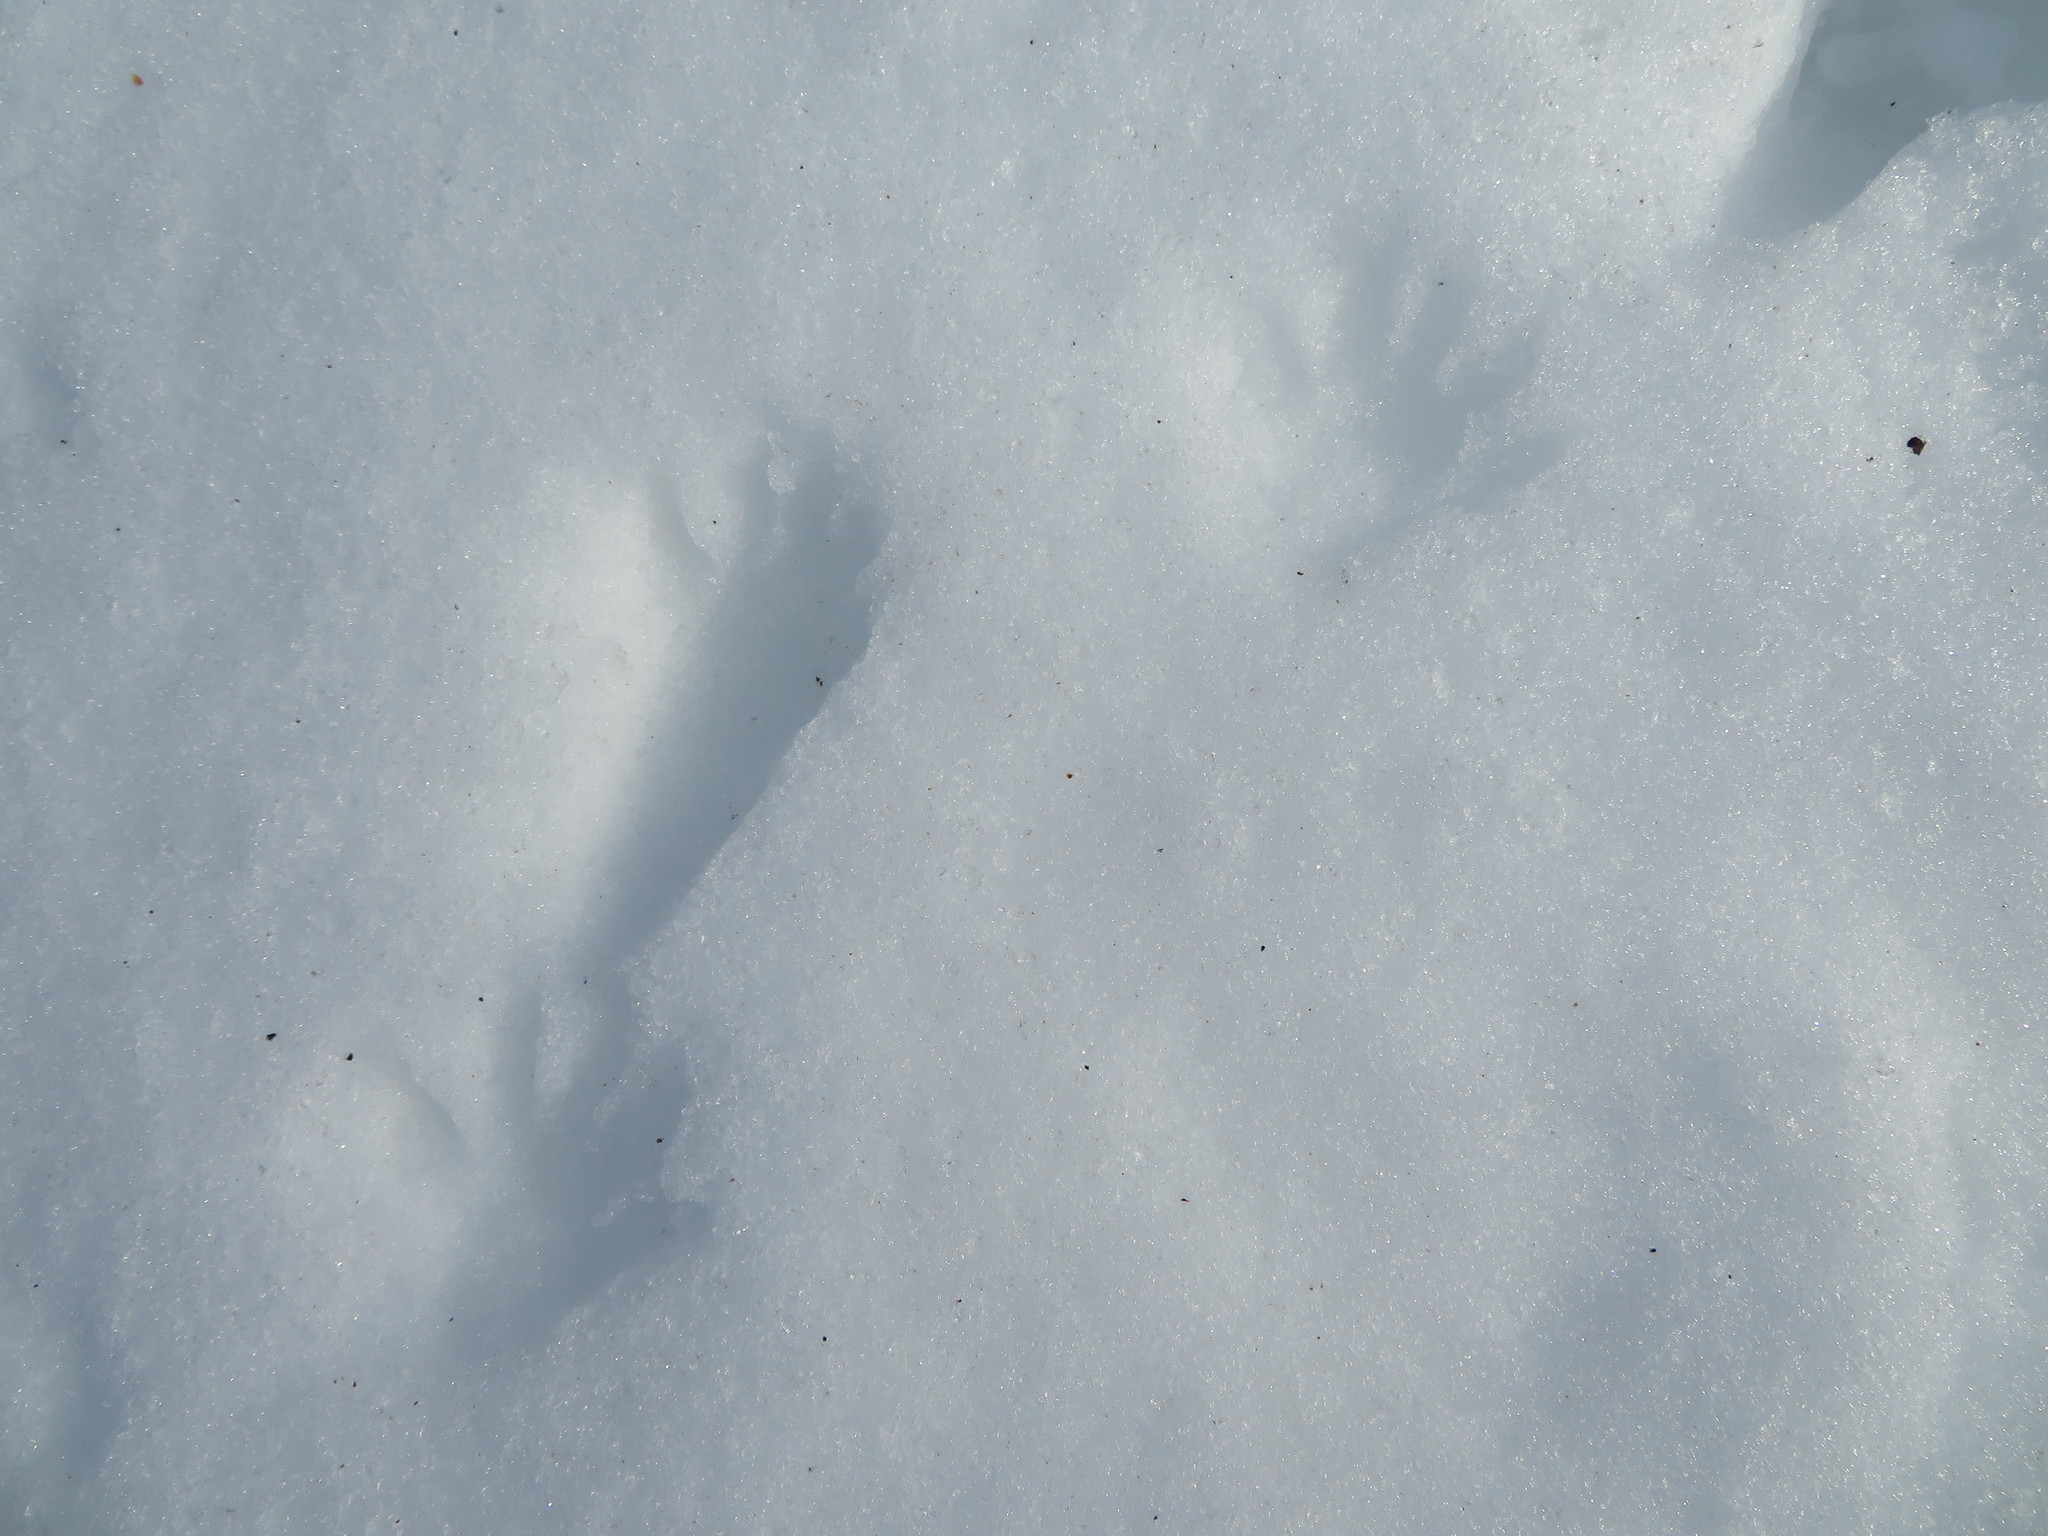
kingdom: Animalia
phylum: Chordata
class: Mammalia
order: Carnivora
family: Procyonidae
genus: Procyon
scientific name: Procyon lotor
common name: Raccoon
